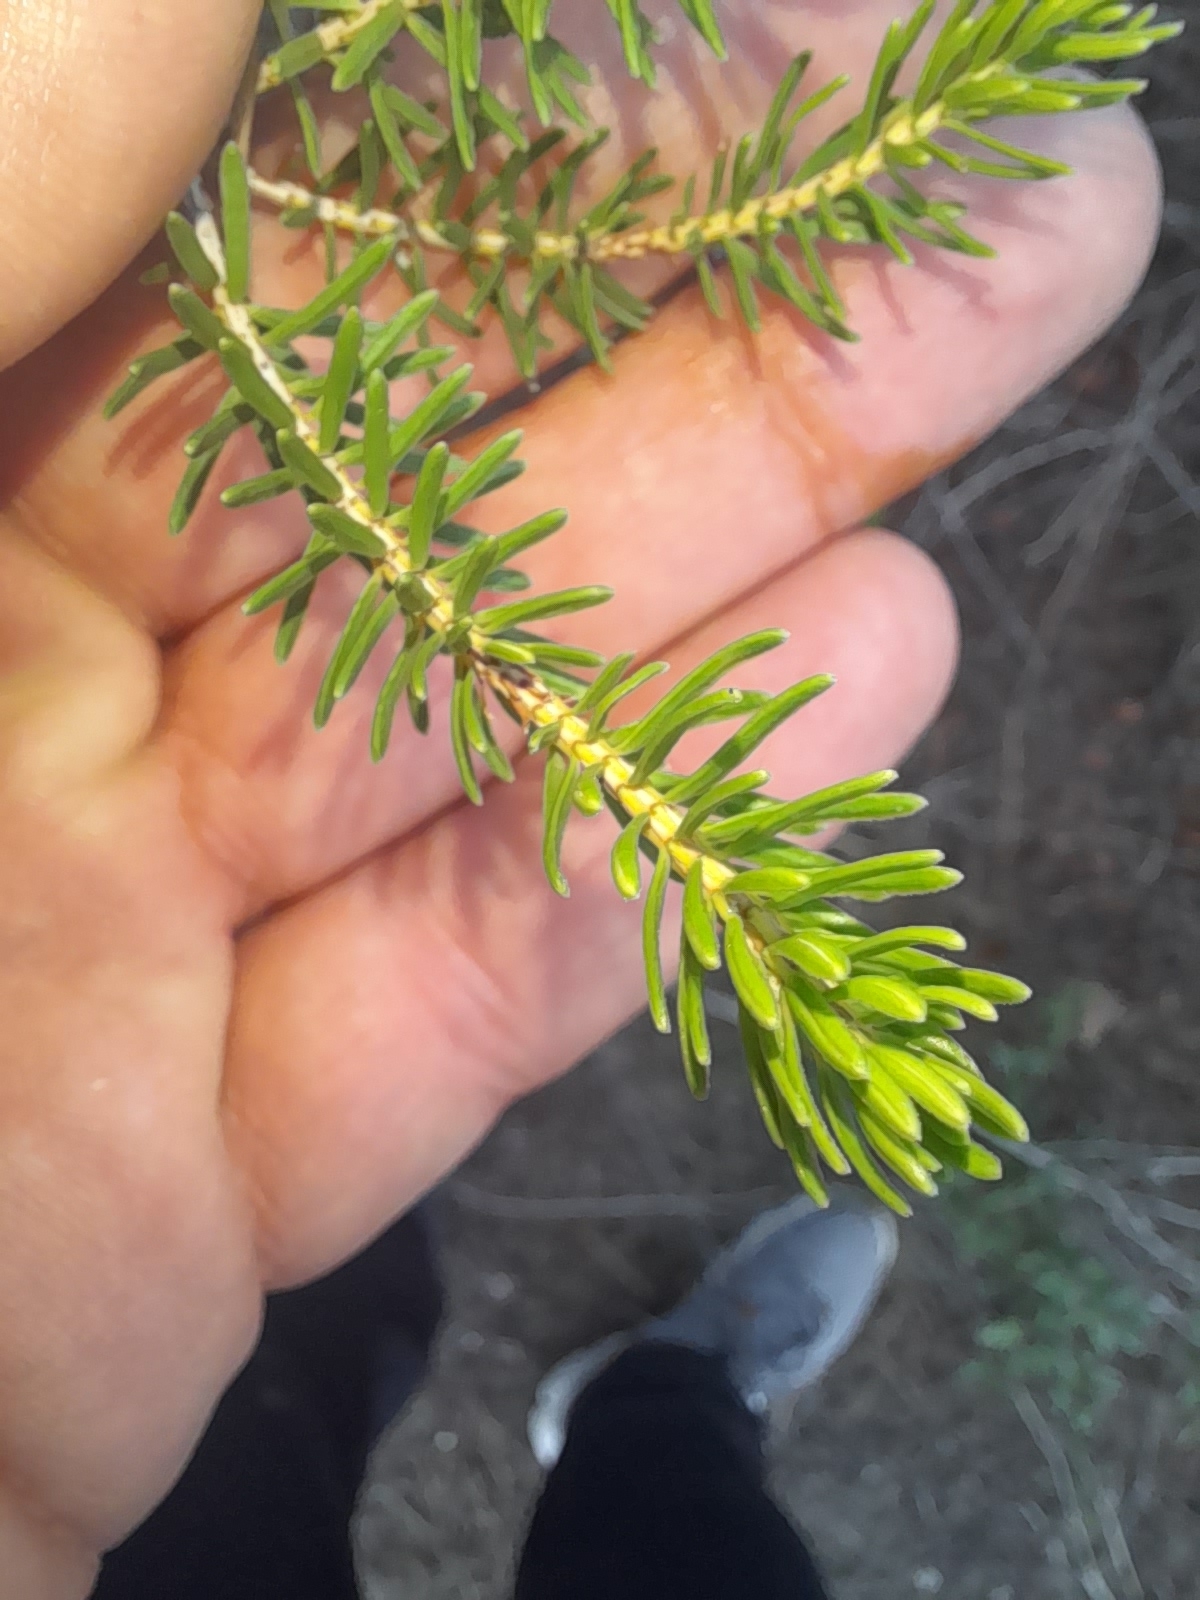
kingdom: Plantae
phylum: Tracheophyta
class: Magnoliopsida
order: Ericales
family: Ericaceae
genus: Erica
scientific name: Erica multiflora
